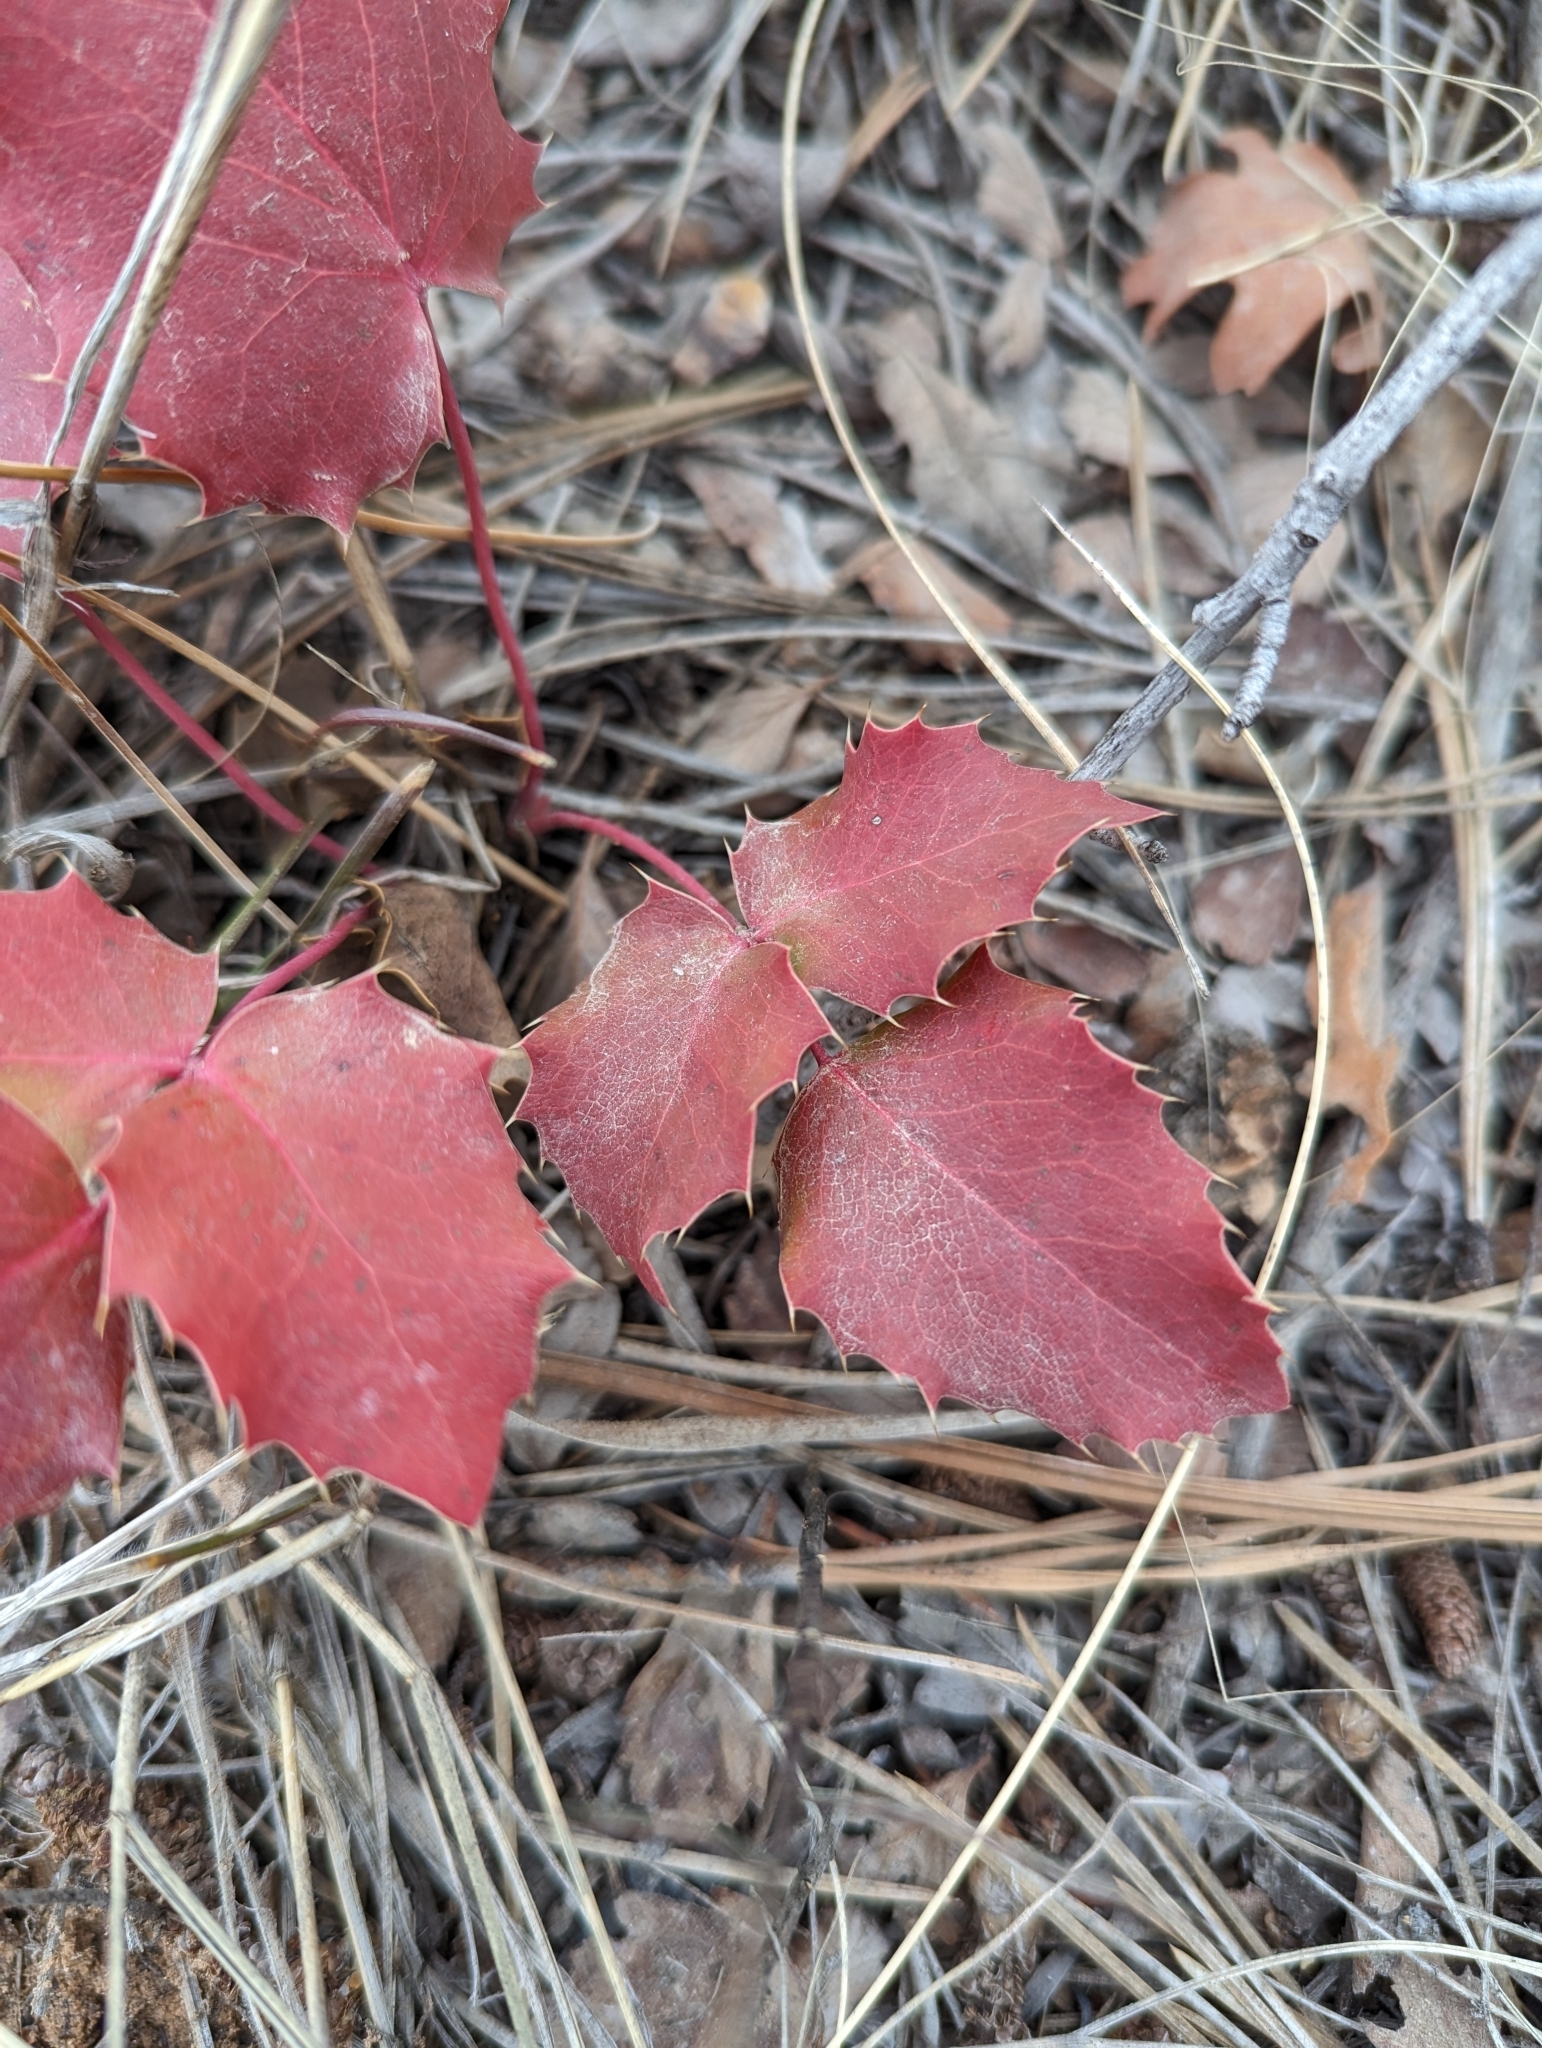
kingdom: Plantae
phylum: Tracheophyta
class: Magnoliopsida
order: Ranunculales
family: Berberidaceae
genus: Mahonia
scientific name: Mahonia repens
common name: Creeping oregon-grape
